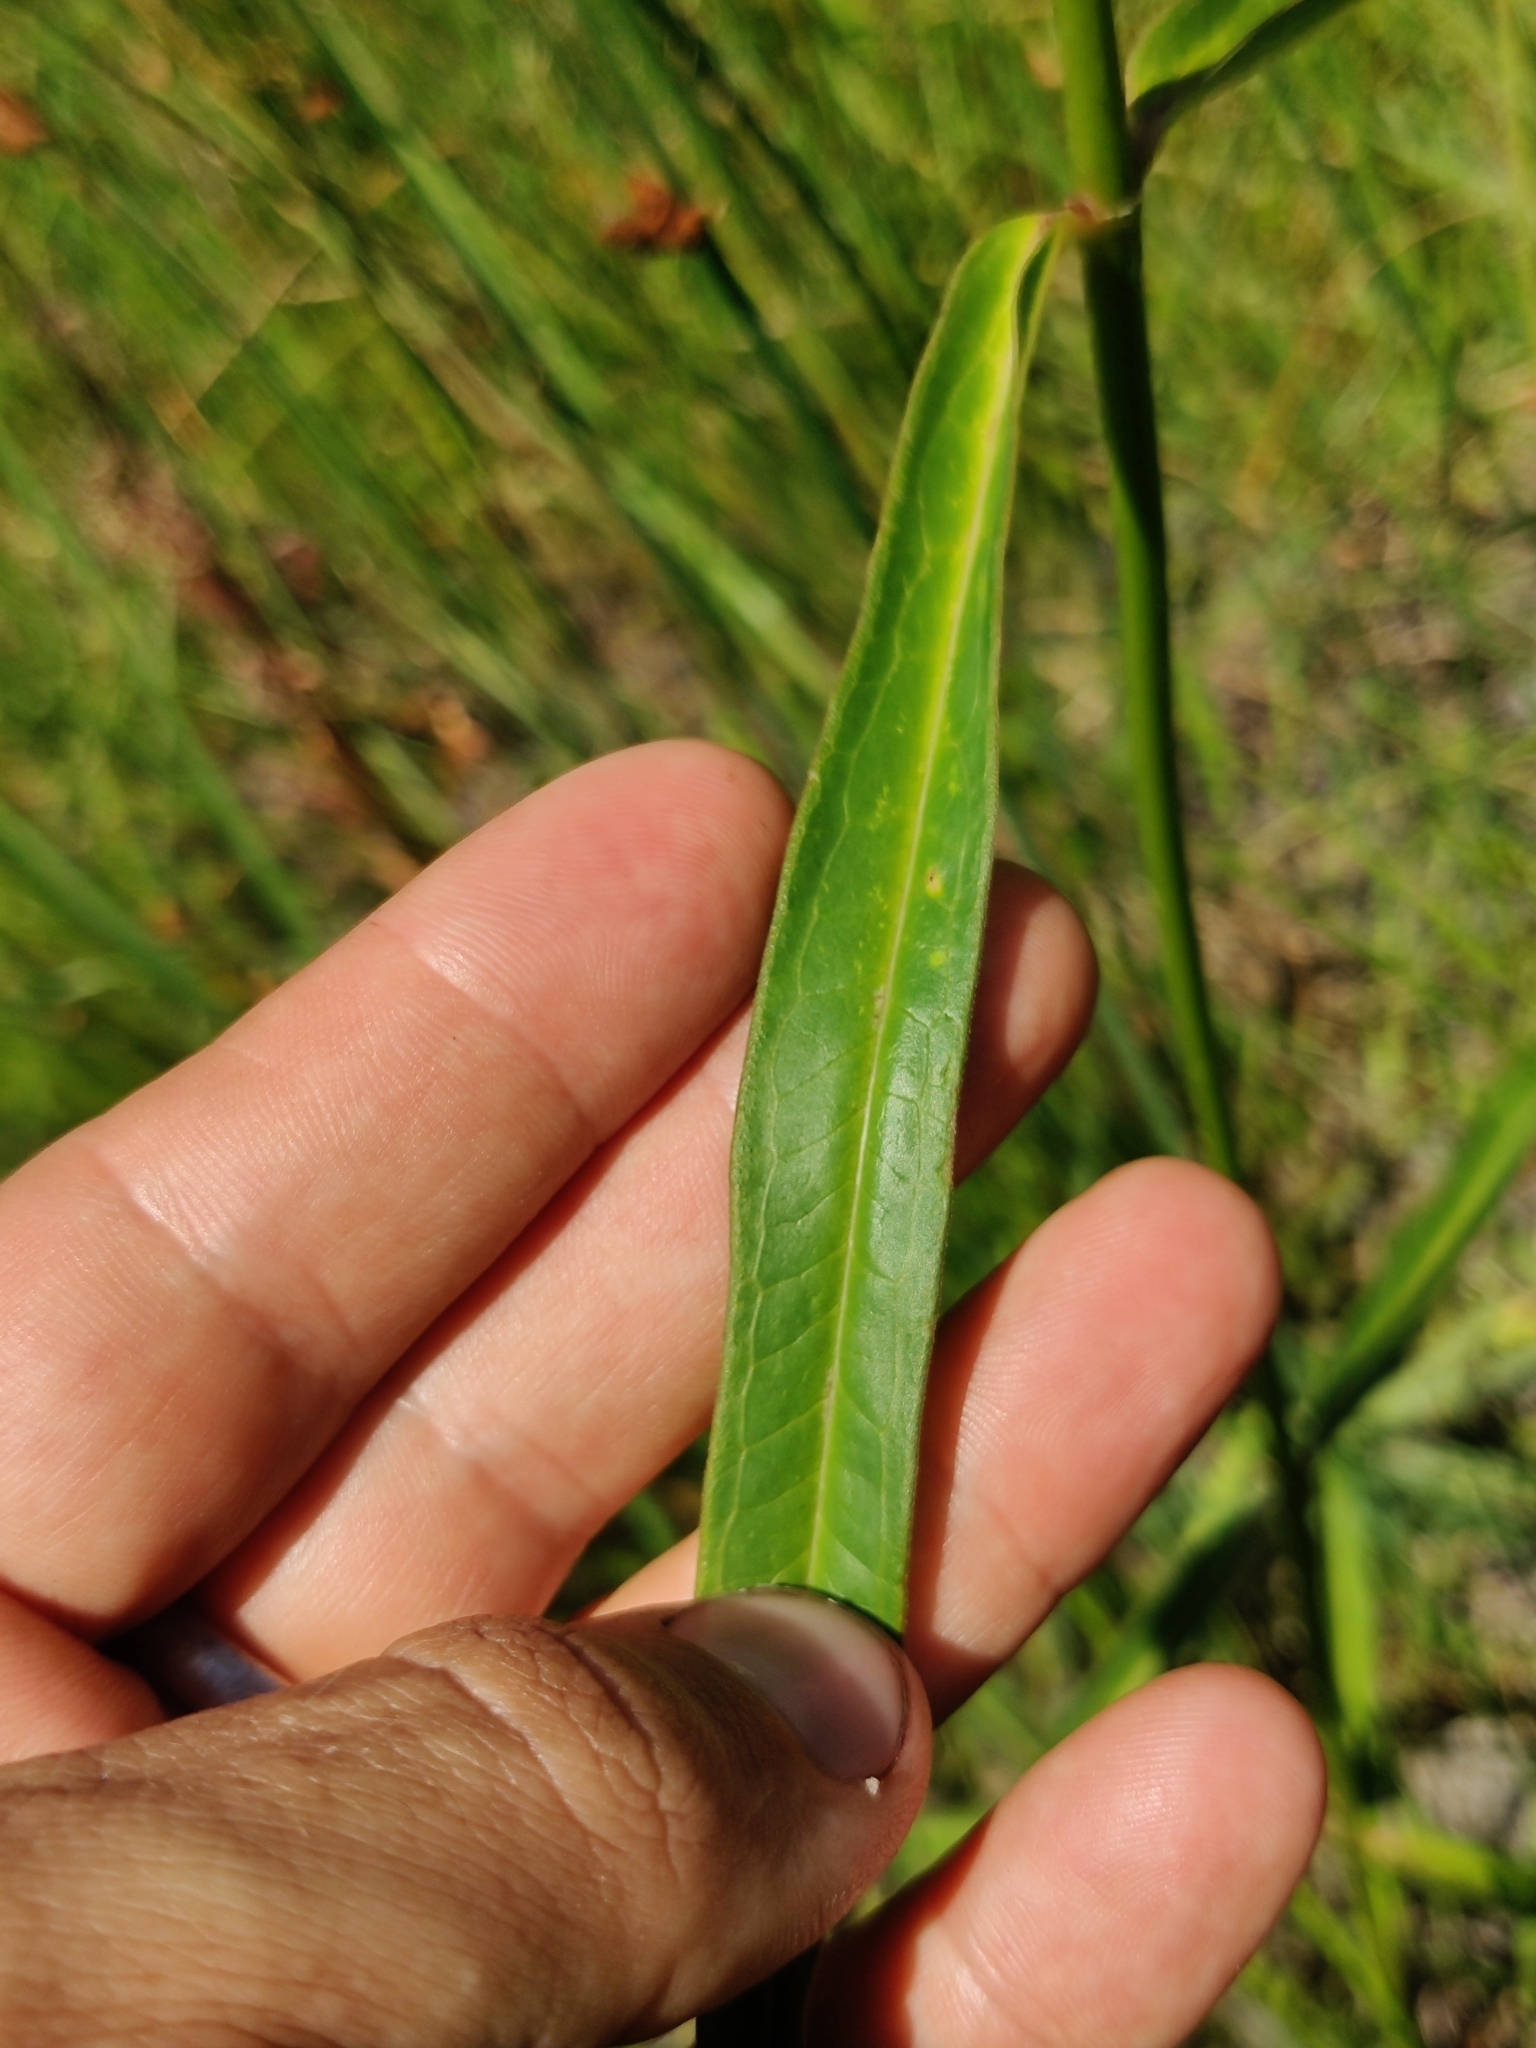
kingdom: Plantae
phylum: Tracheophyta
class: Magnoliopsida
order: Gentianales
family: Apocynaceae
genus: Asclepias
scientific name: Asclepias lanceolata
